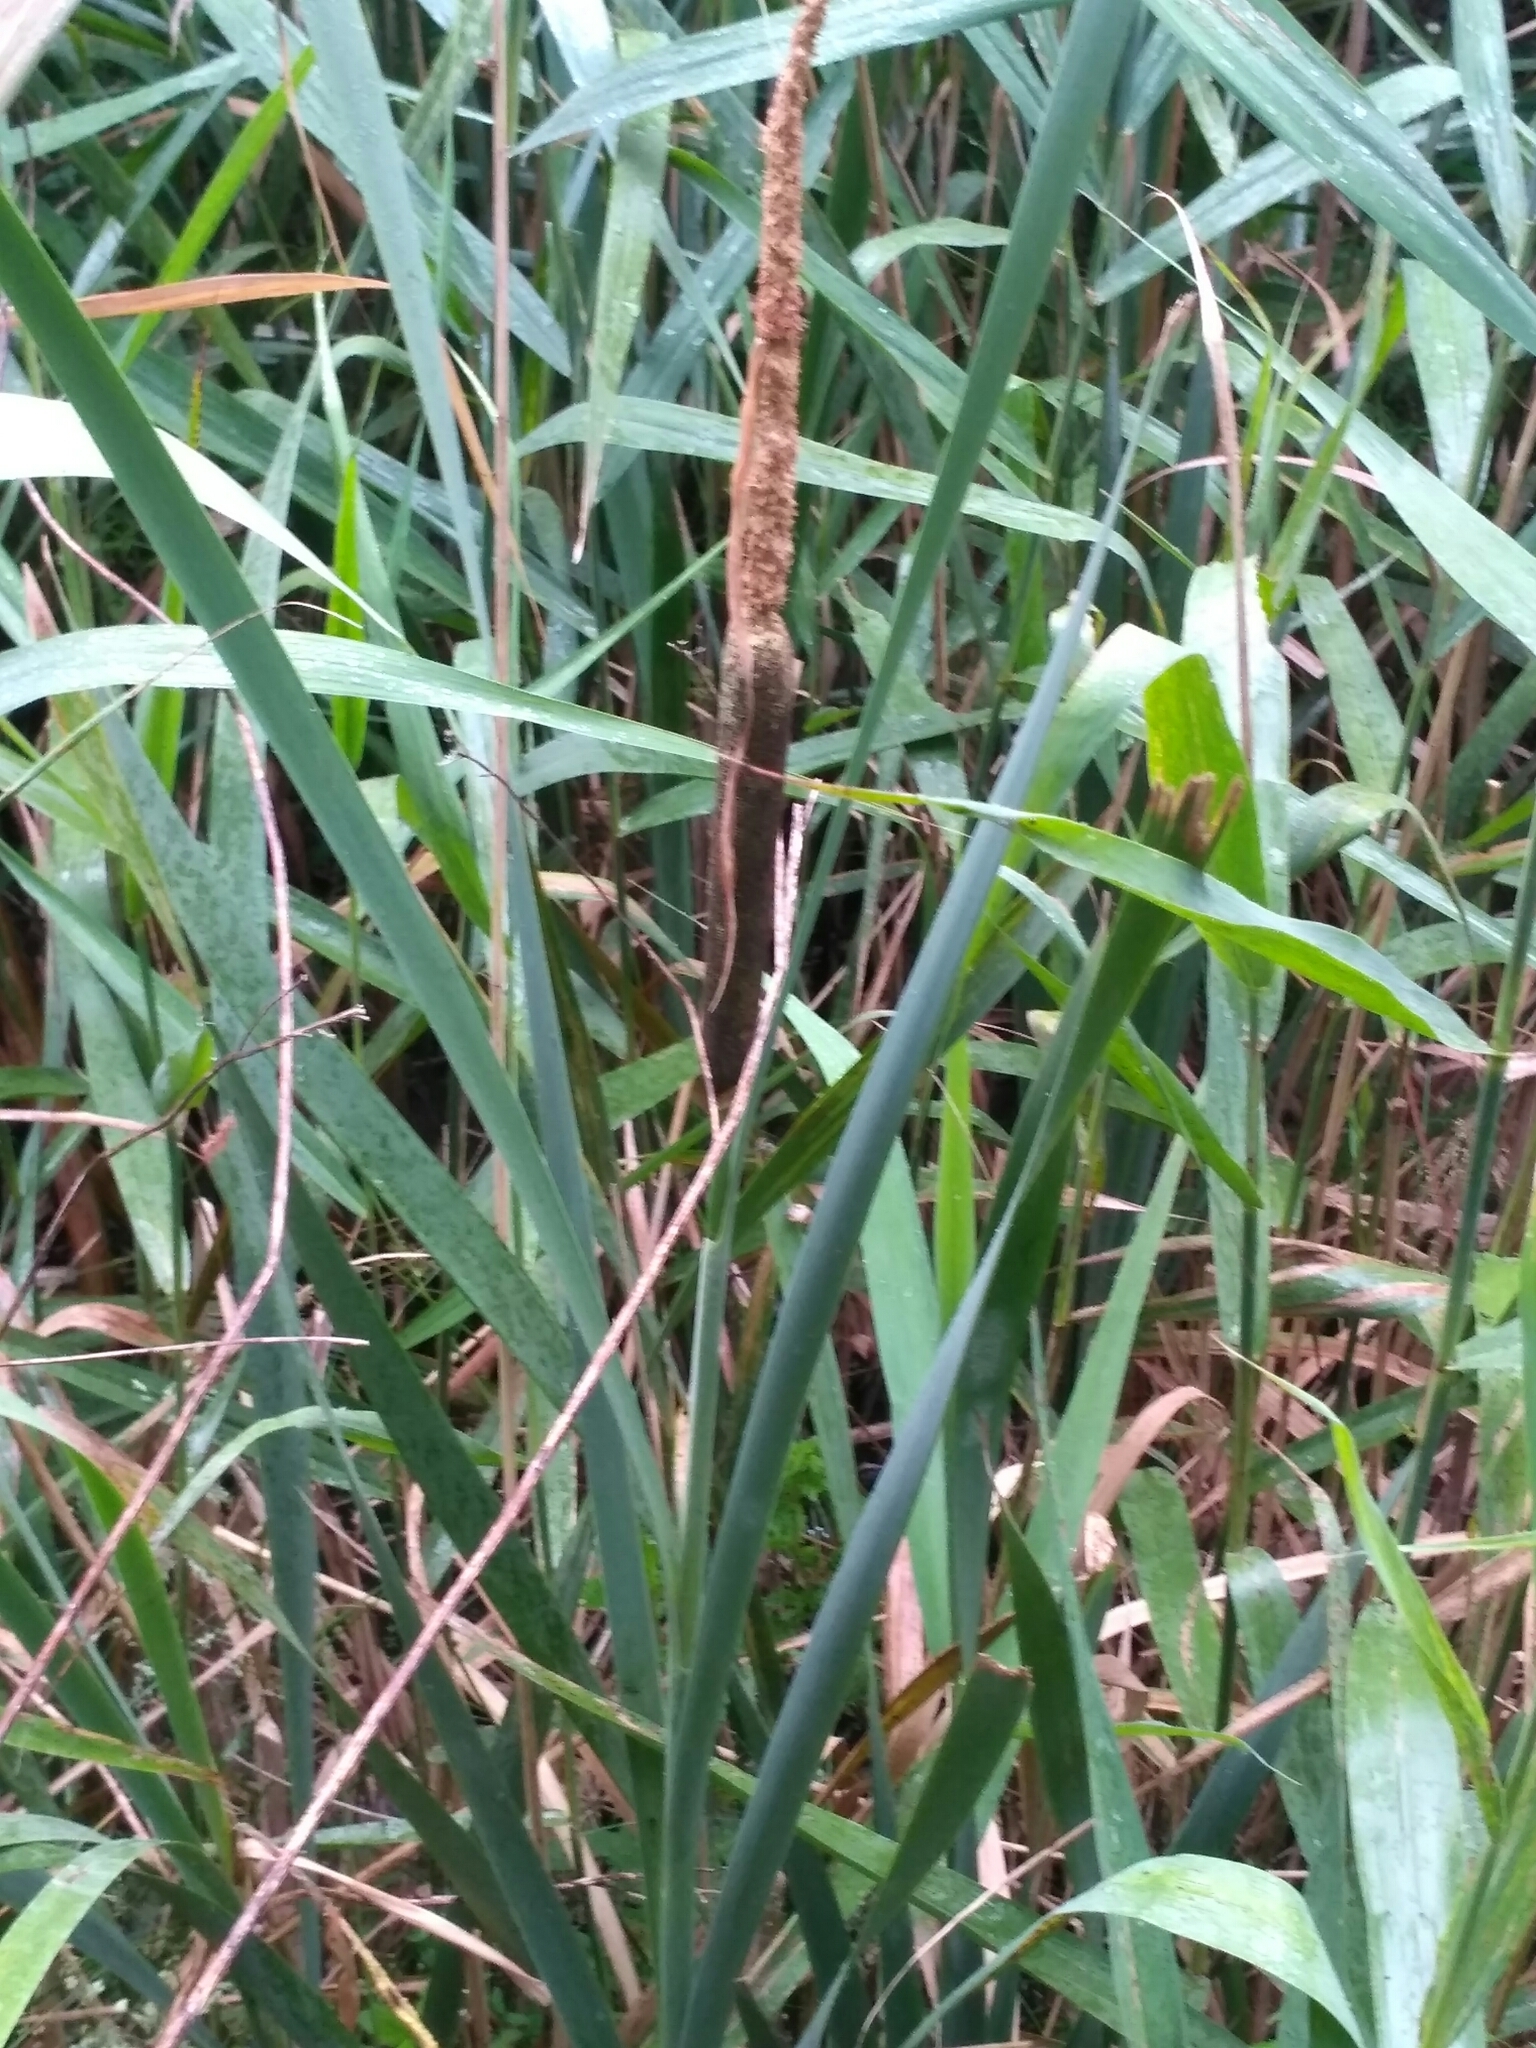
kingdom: Plantae
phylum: Tracheophyta
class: Liliopsida
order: Poales
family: Typhaceae
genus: Typha
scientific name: Typha latifolia
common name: Broadleaf cattail
